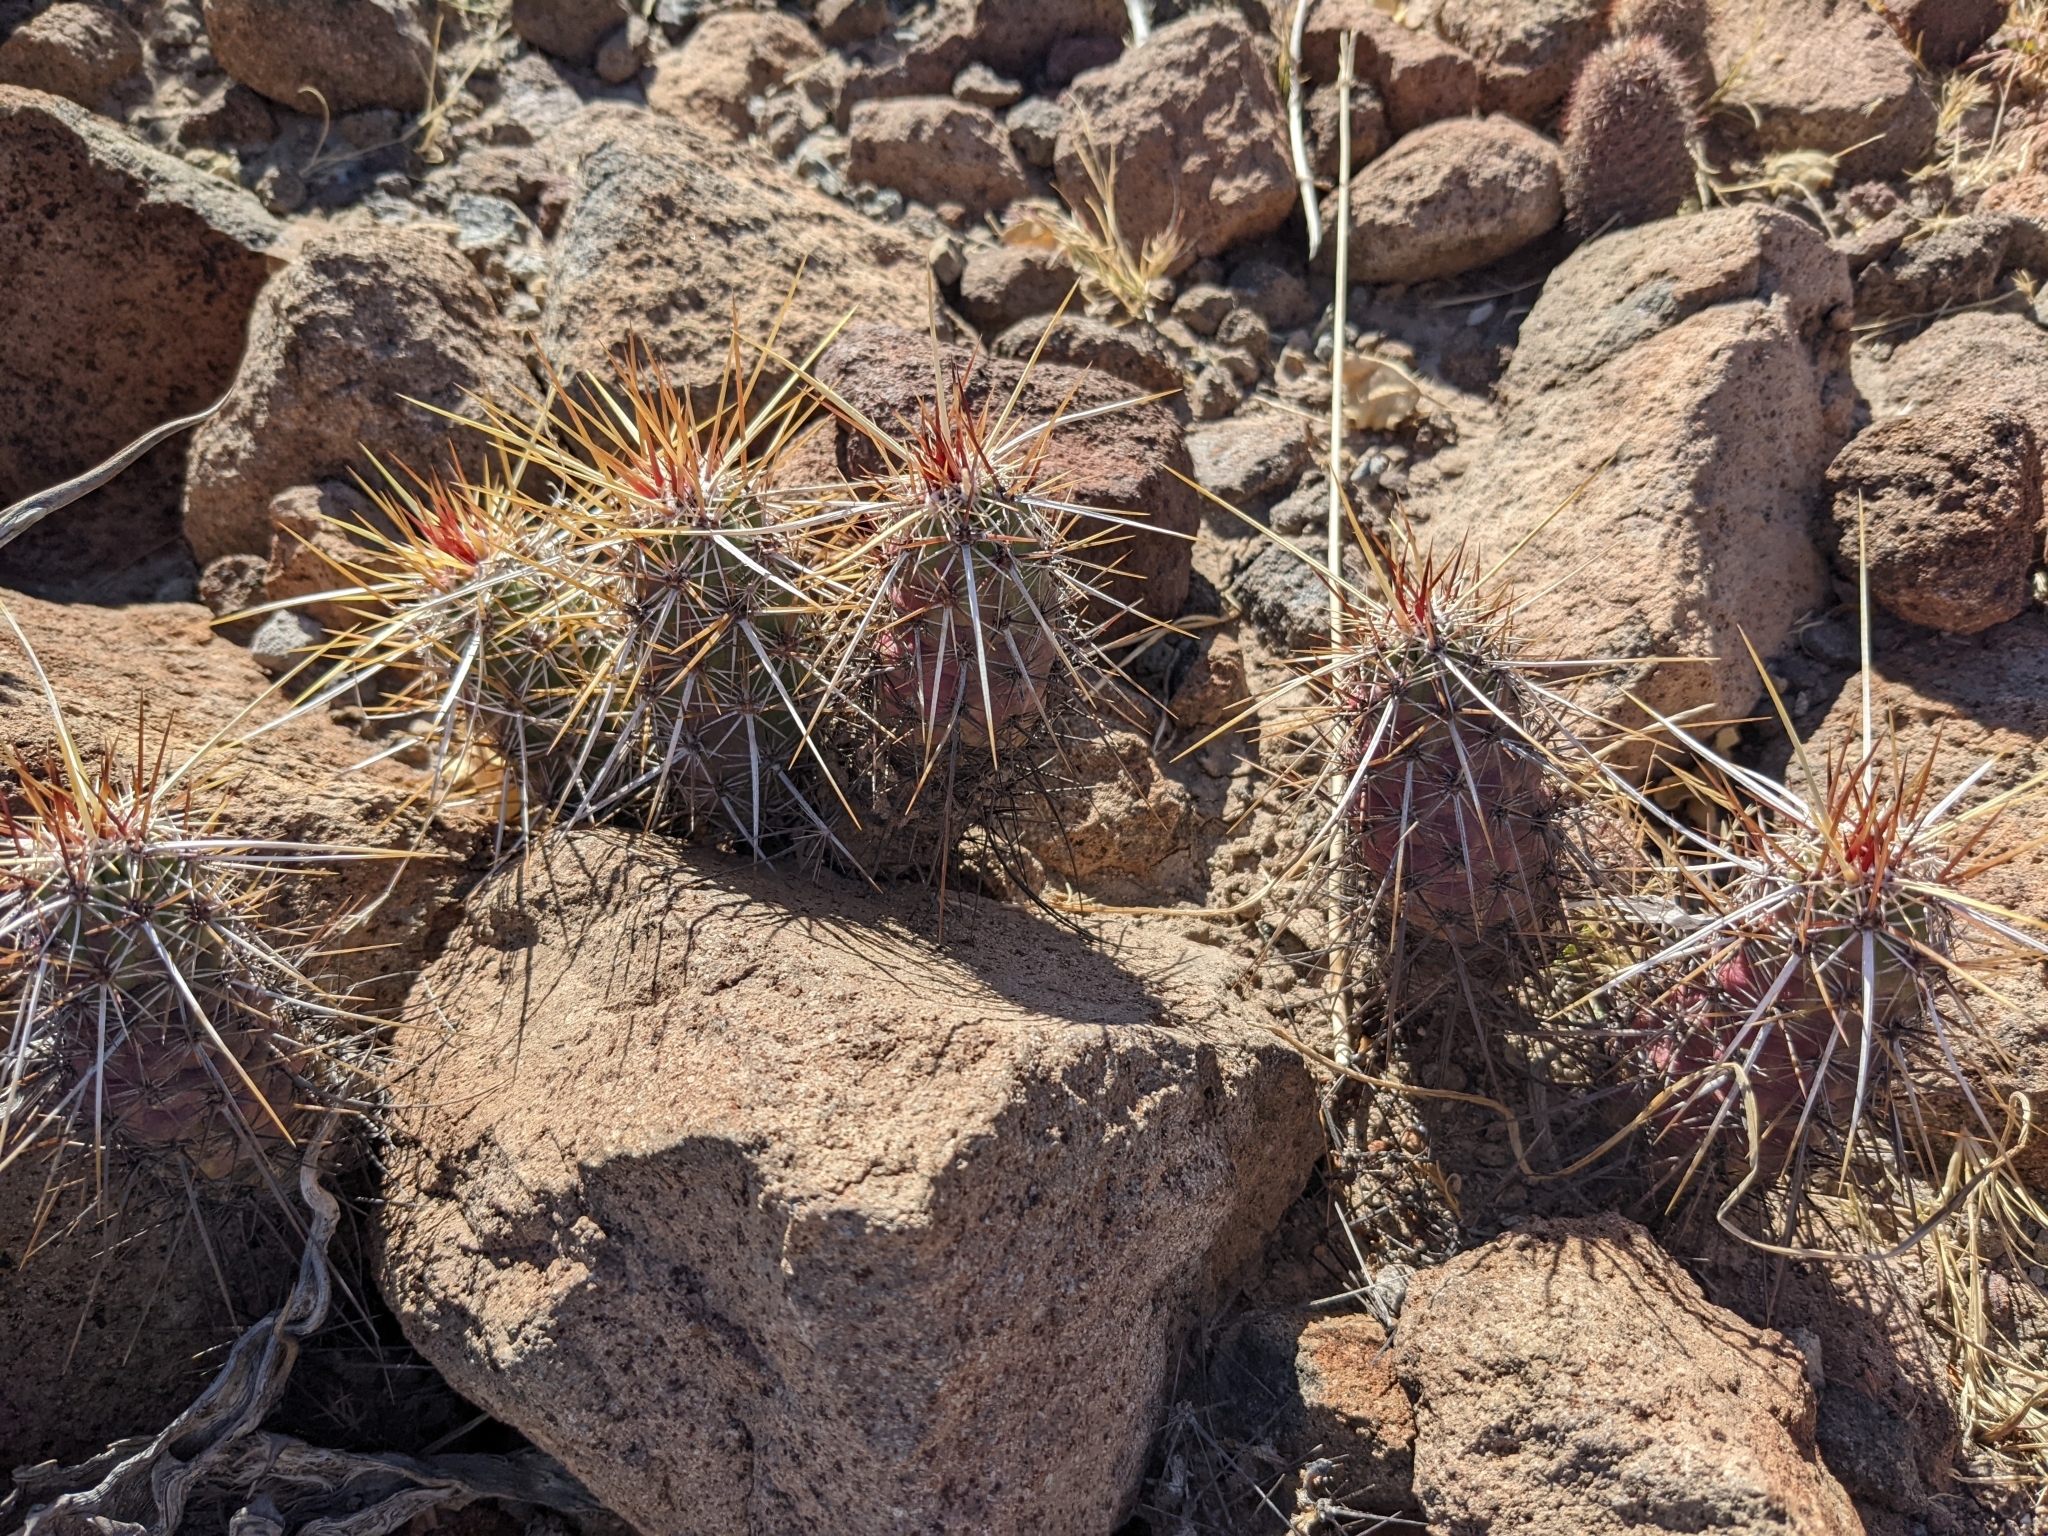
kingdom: Plantae
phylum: Tracheophyta
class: Magnoliopsida
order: Caryophyllales
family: Cactaceae
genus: Echinocereus
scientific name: Echinocereus brandegeei
